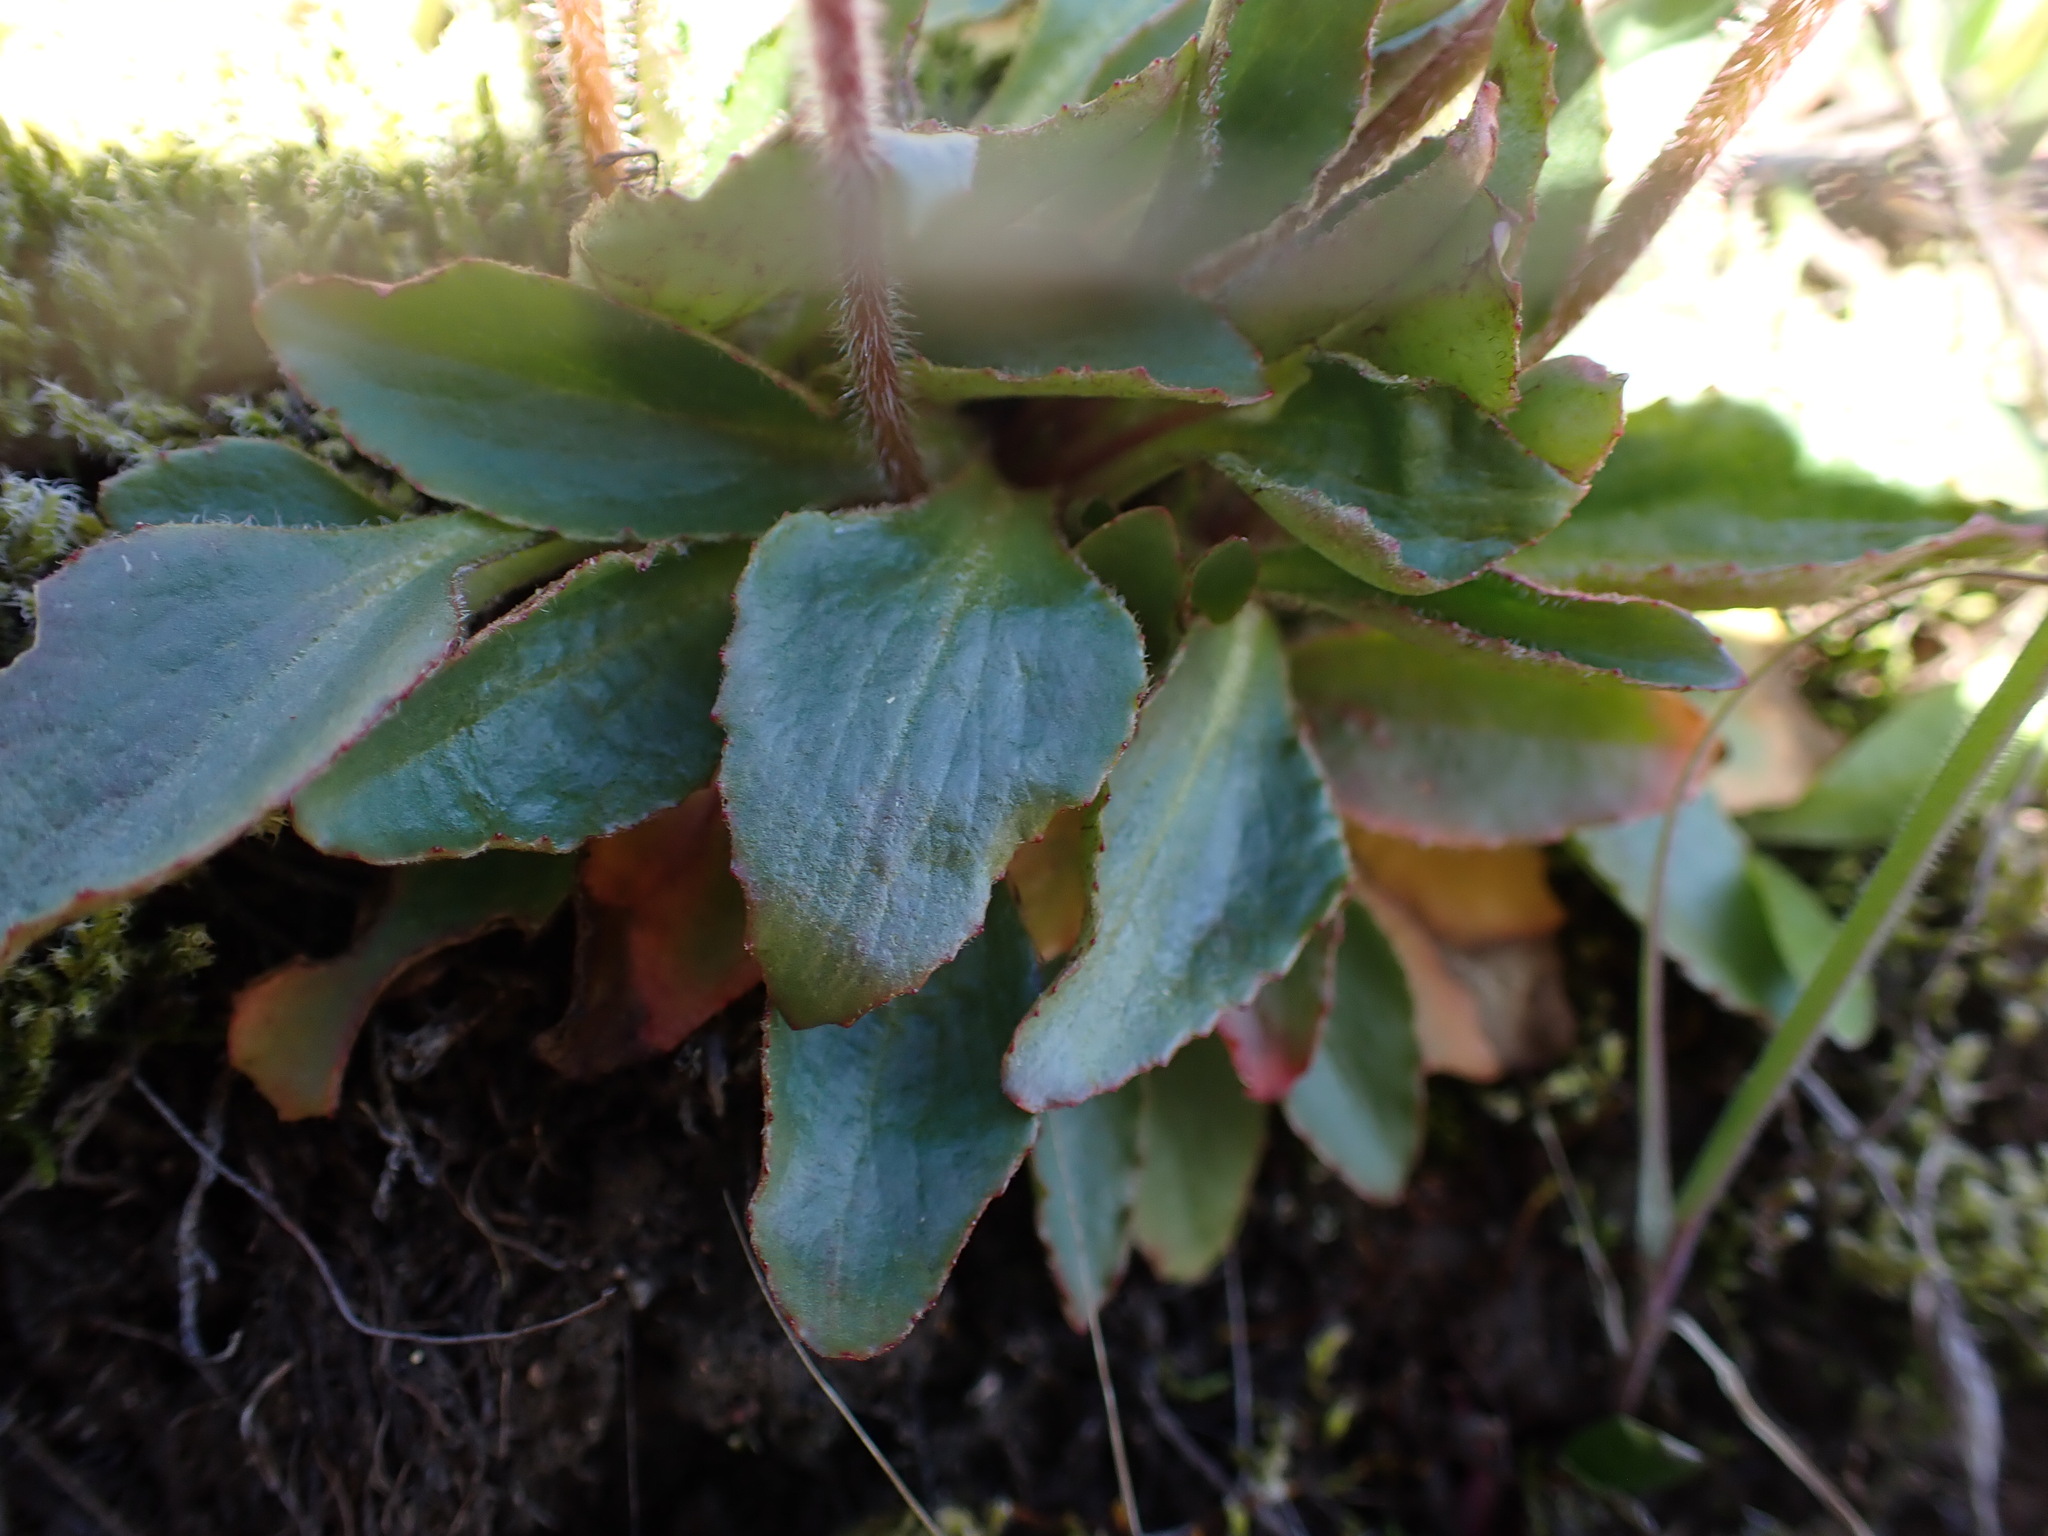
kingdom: Plantae
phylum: Tracheophyta
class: Magnoliopsida
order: Saxifragales
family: Saxifragaceae
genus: Micranthes
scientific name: Micranthes integrifolia
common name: Wholeleaf saxifrage
